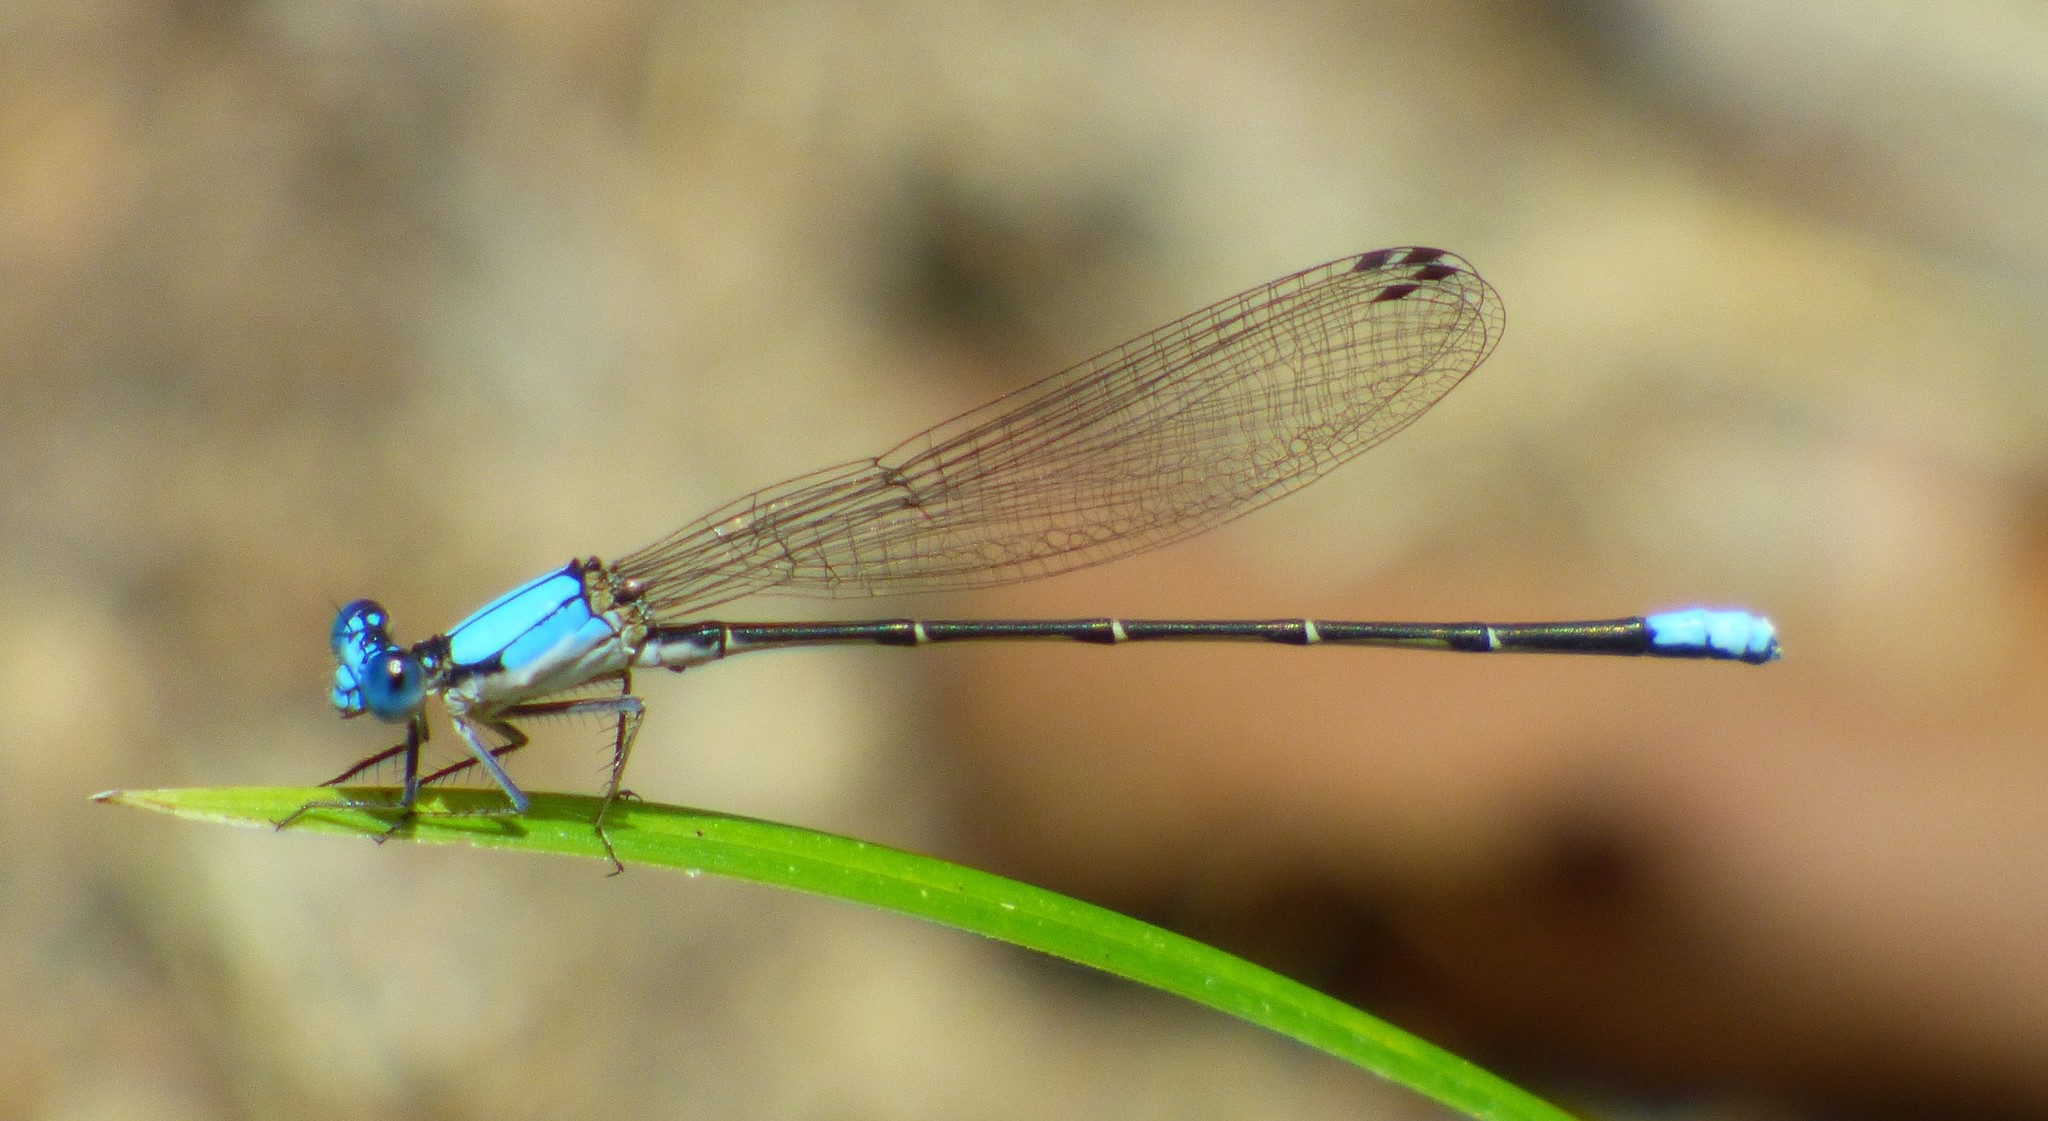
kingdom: Animalia
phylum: Arthropoda
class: Insecta
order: Odonata
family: Coenagrionidae
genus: Argia
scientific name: Argia apicalis
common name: Blue-fronted dancer
